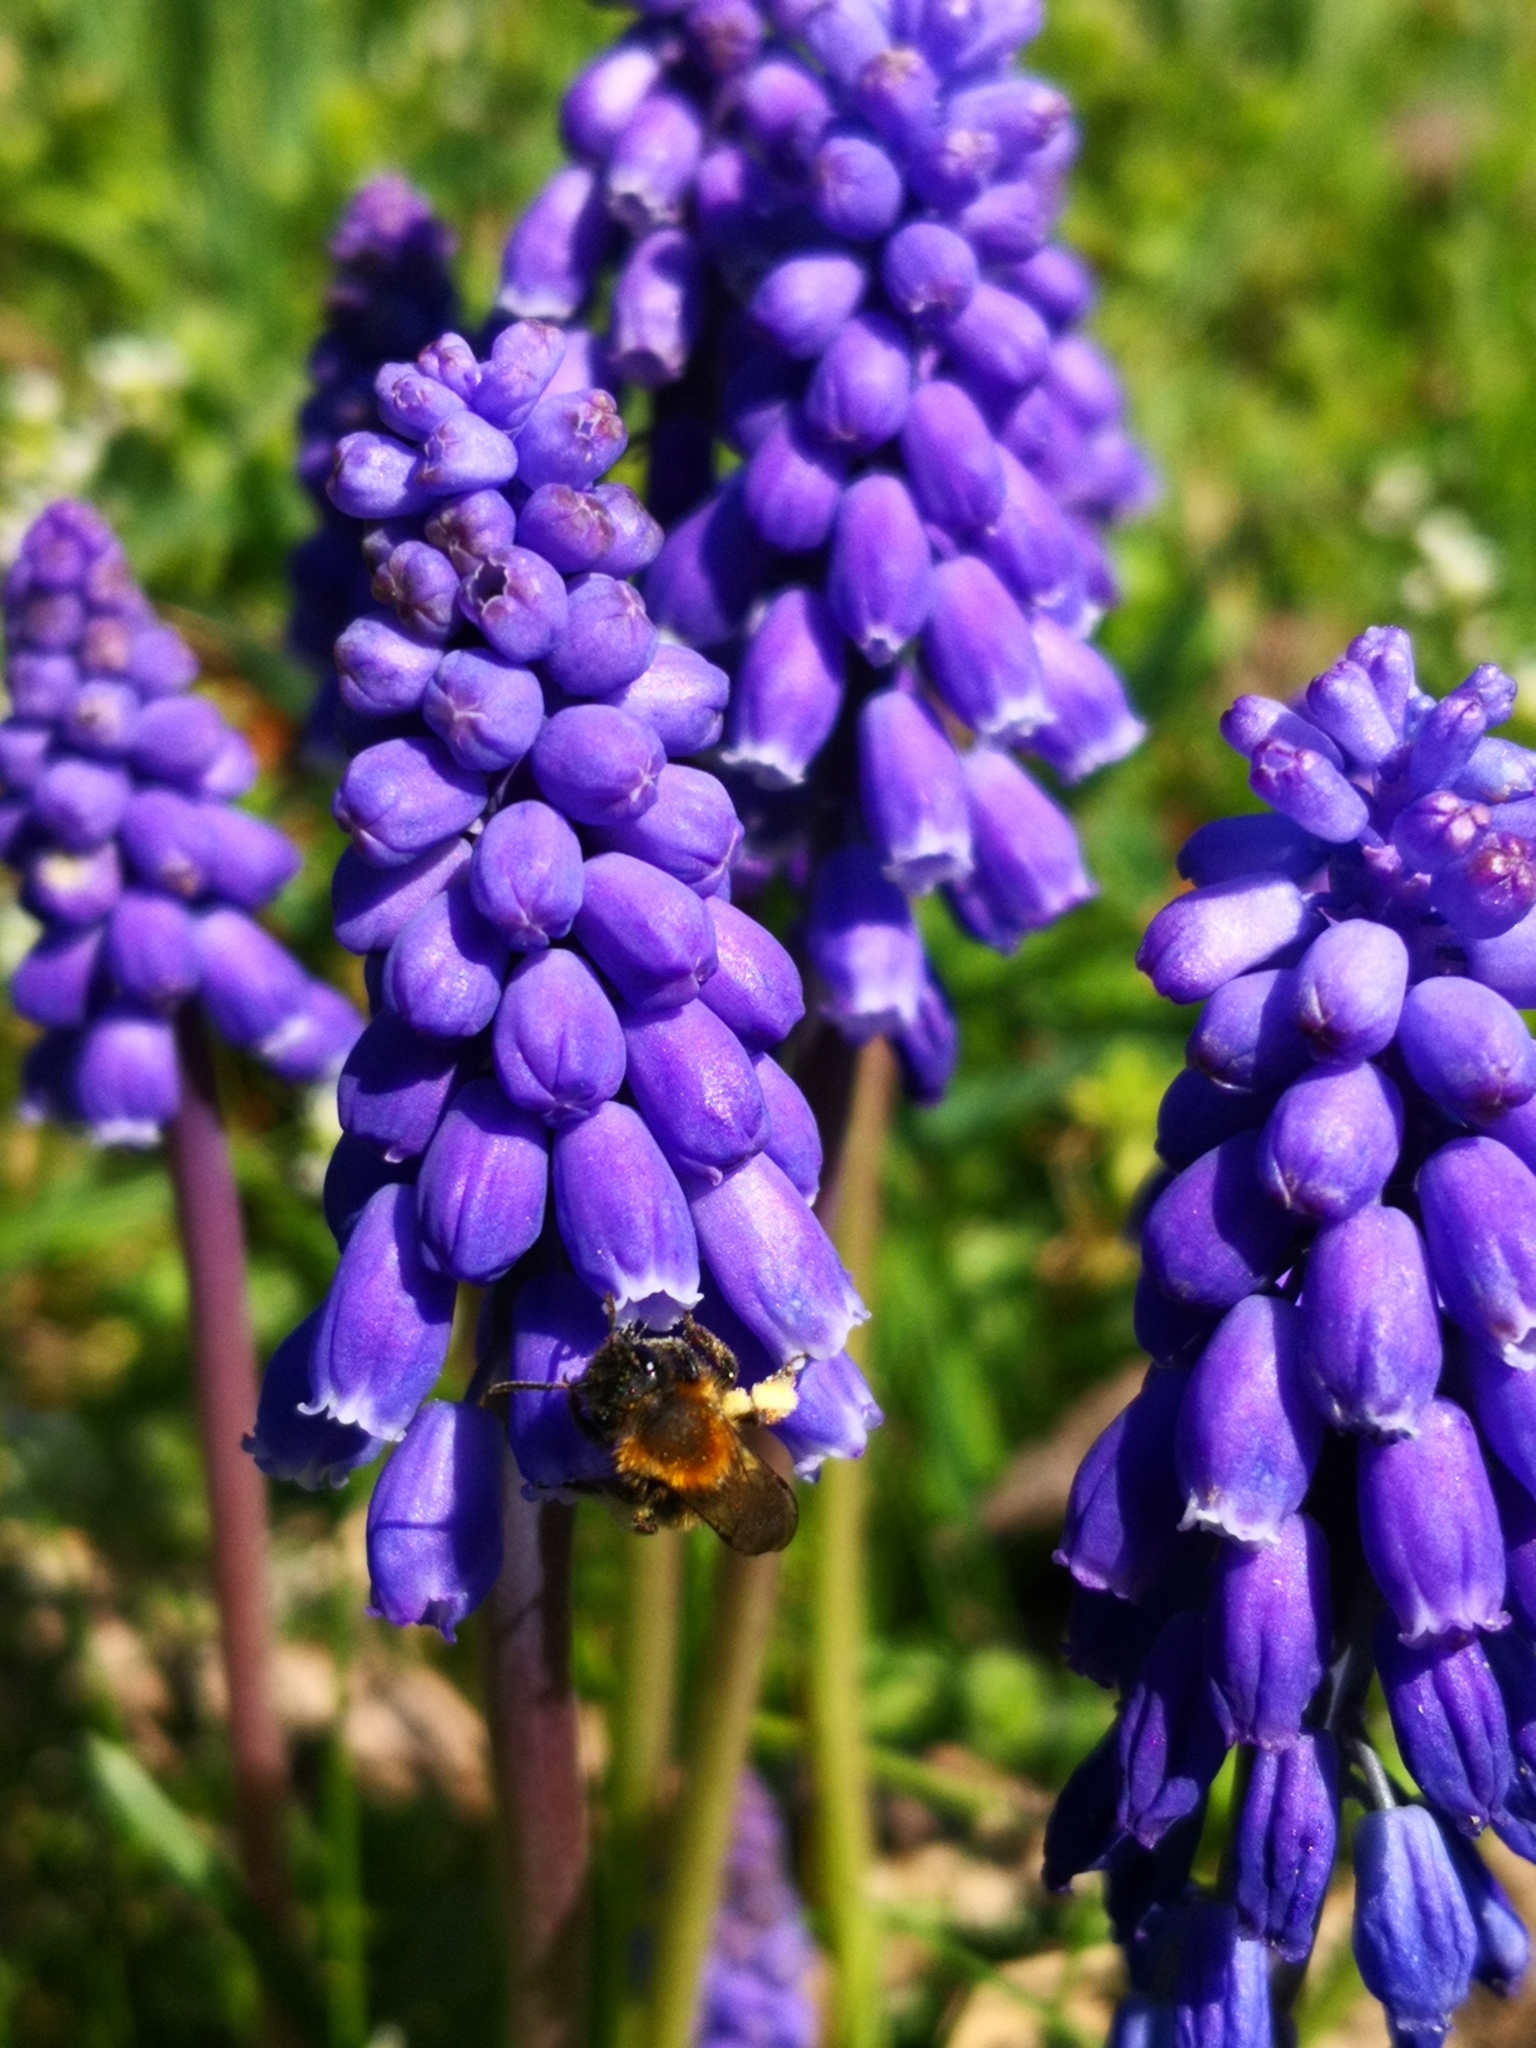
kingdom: Plantae
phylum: Tracheophyta
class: Liliopsida
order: Asparagales
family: Asparagaceae
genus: Muscari
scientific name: Muscari armeniacum
